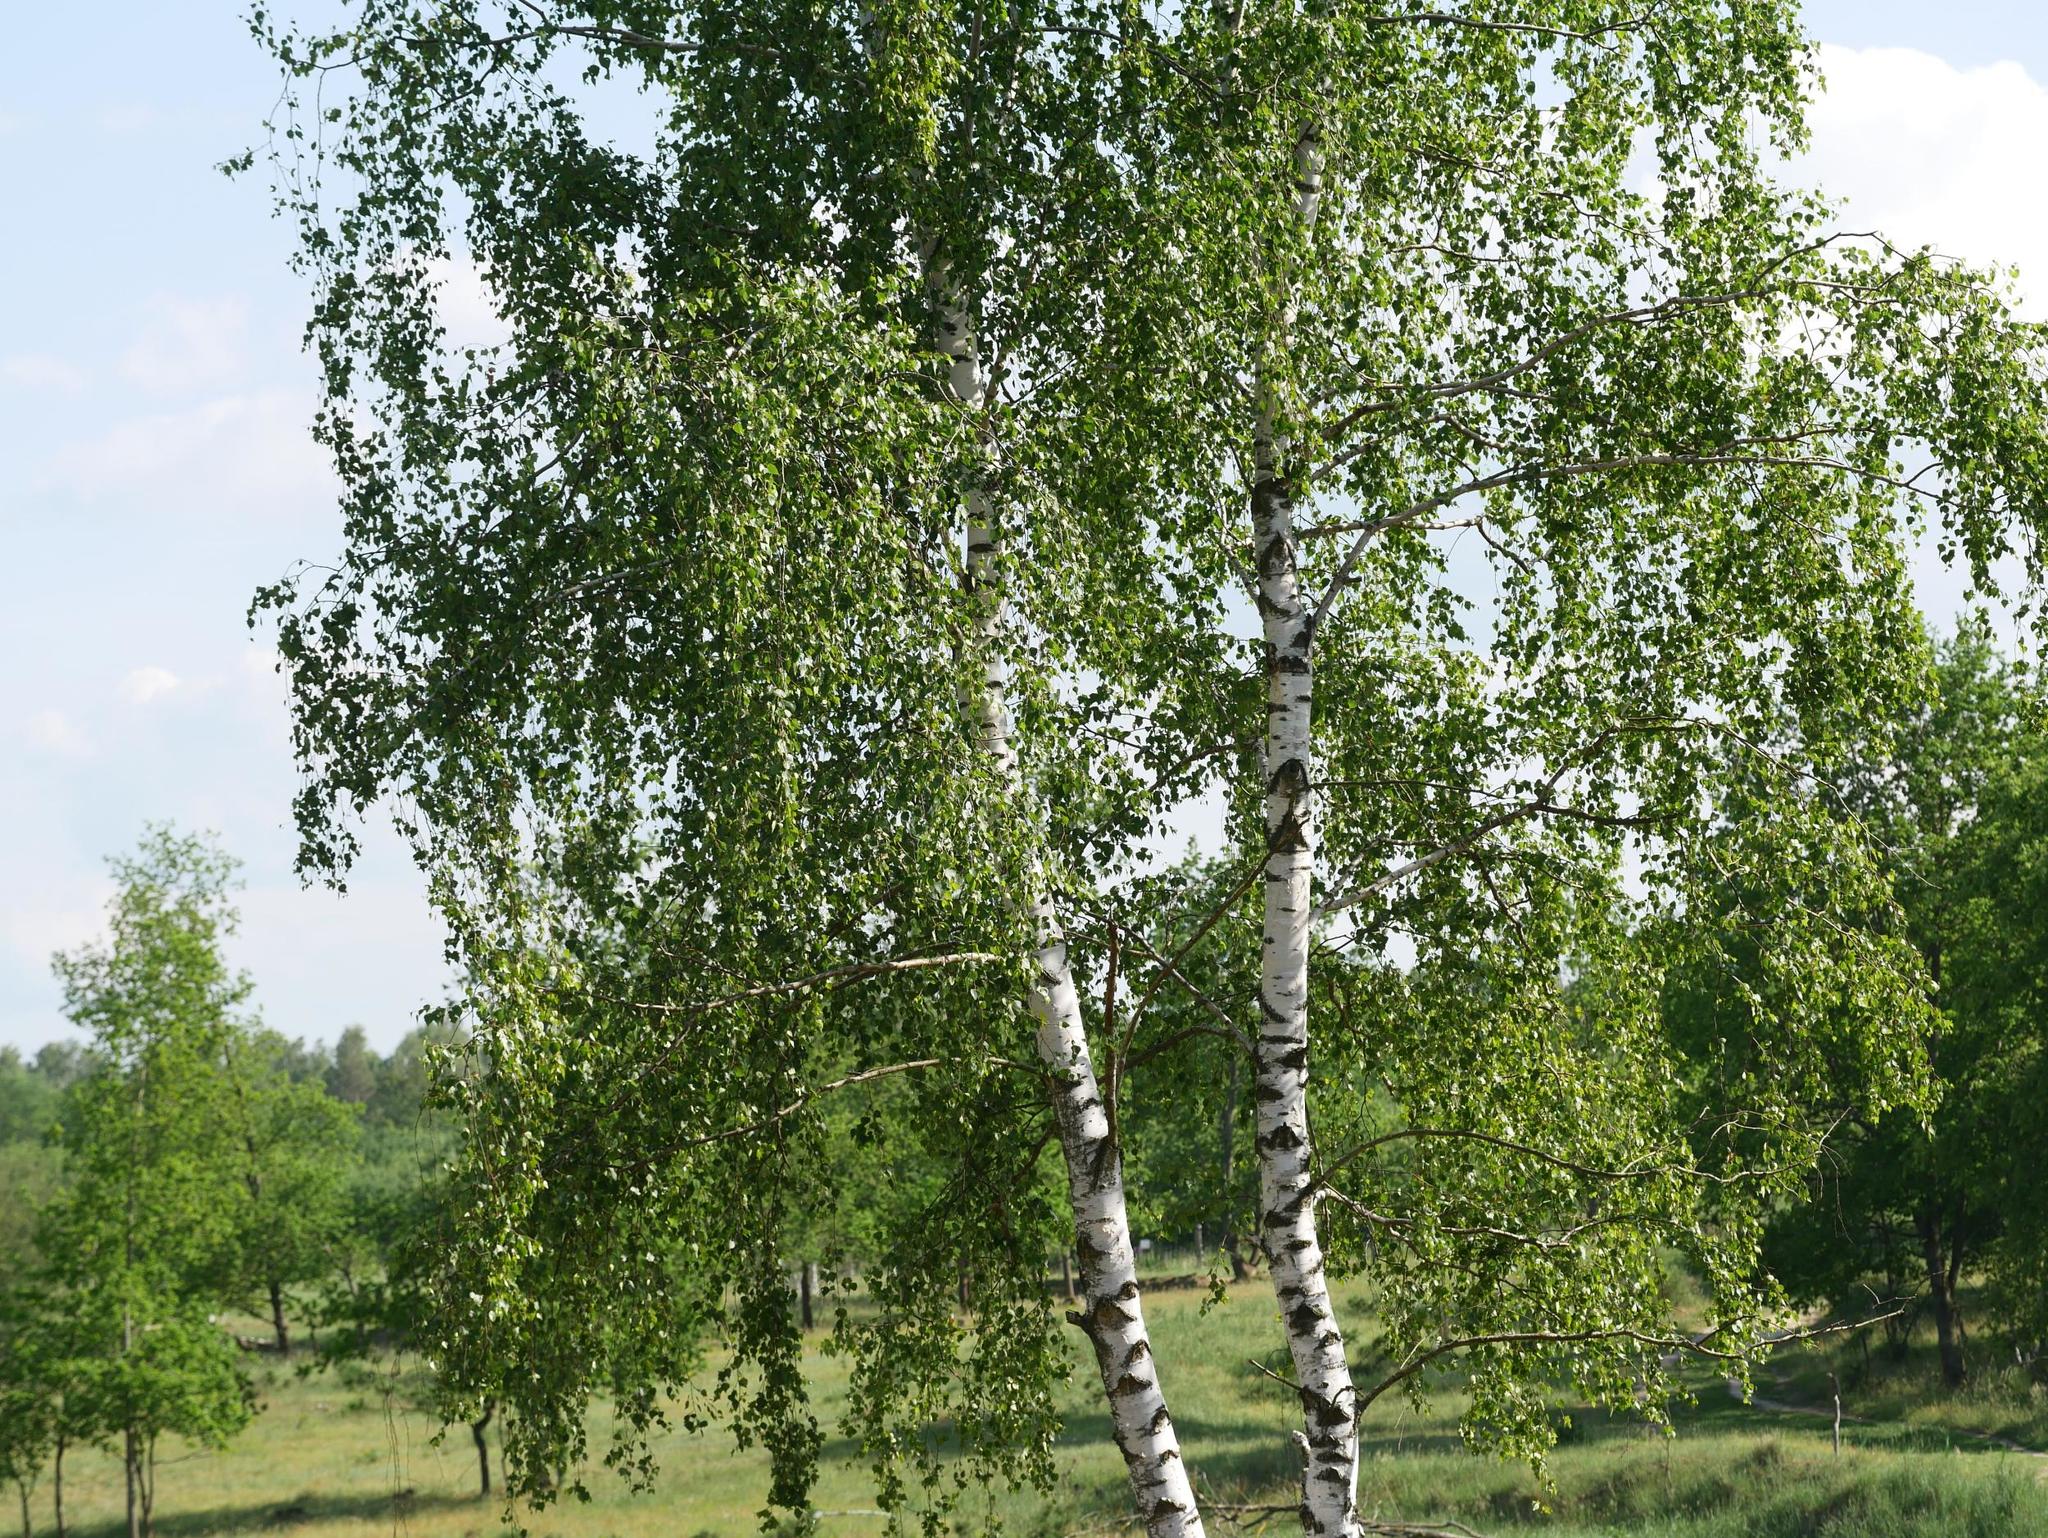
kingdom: Plantae
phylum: Tracheophyta
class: Magnoliopsida
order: Fagales
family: Betulaceae
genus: Betula
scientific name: Betula pendula
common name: Silver birch
